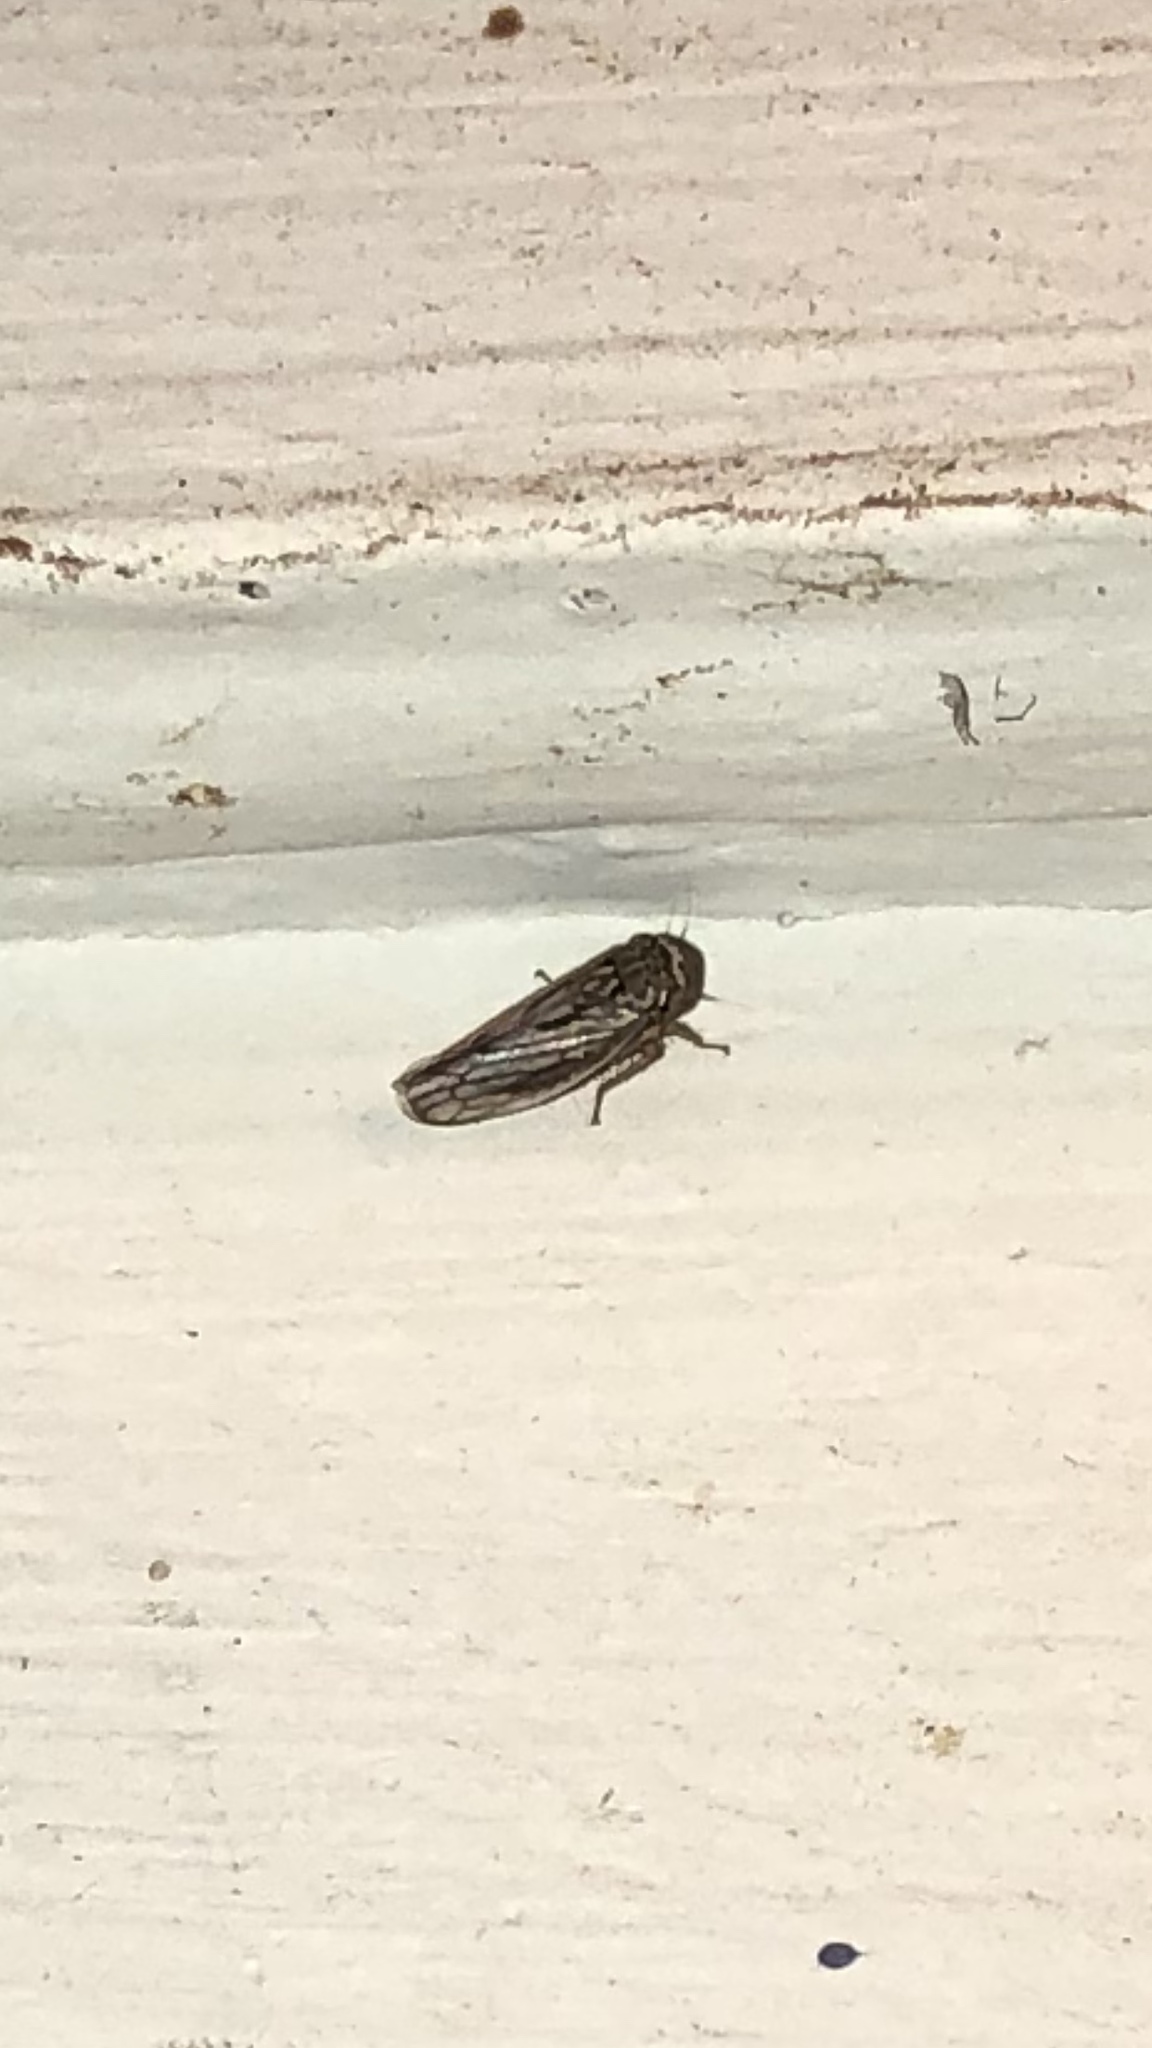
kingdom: Animalia
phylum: Arthropoda
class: Insecta
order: Hemiptera
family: Cicadellidae
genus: Exitianus
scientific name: Exitianus exitiosus
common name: Gray lawn leafhopper
